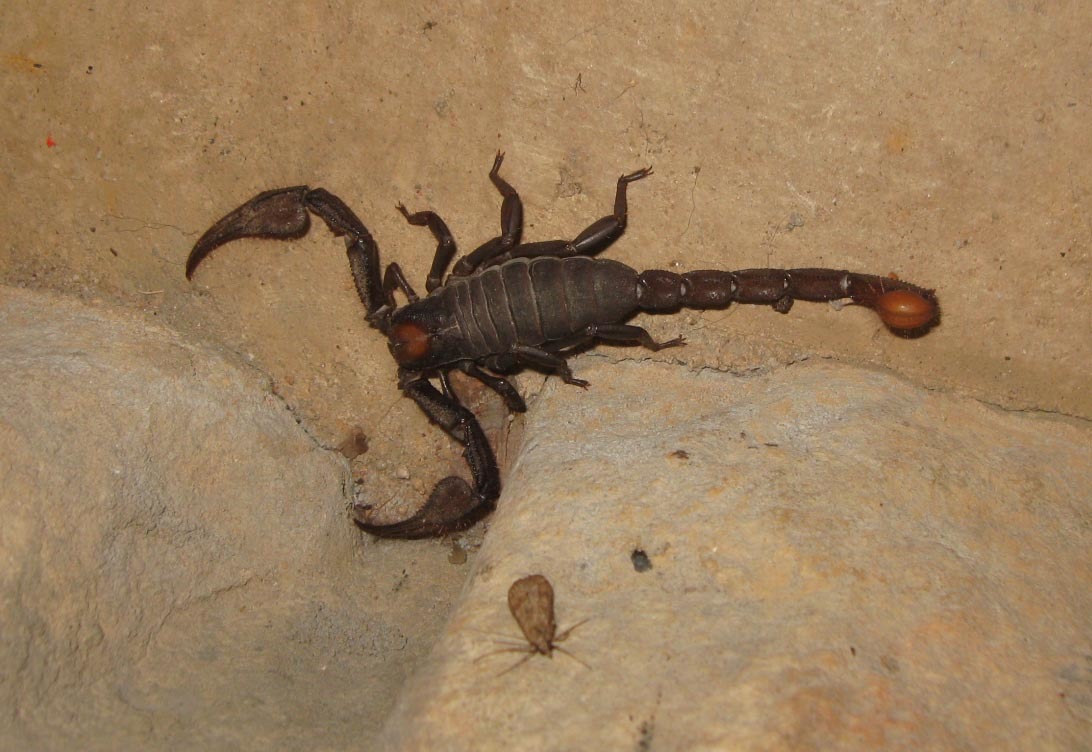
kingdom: Animalia
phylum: Arthropoda
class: Arachnida
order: Scorpiones
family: Scorpionidae
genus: Opistophthalmus
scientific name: Opistophthalmus pattisoni
